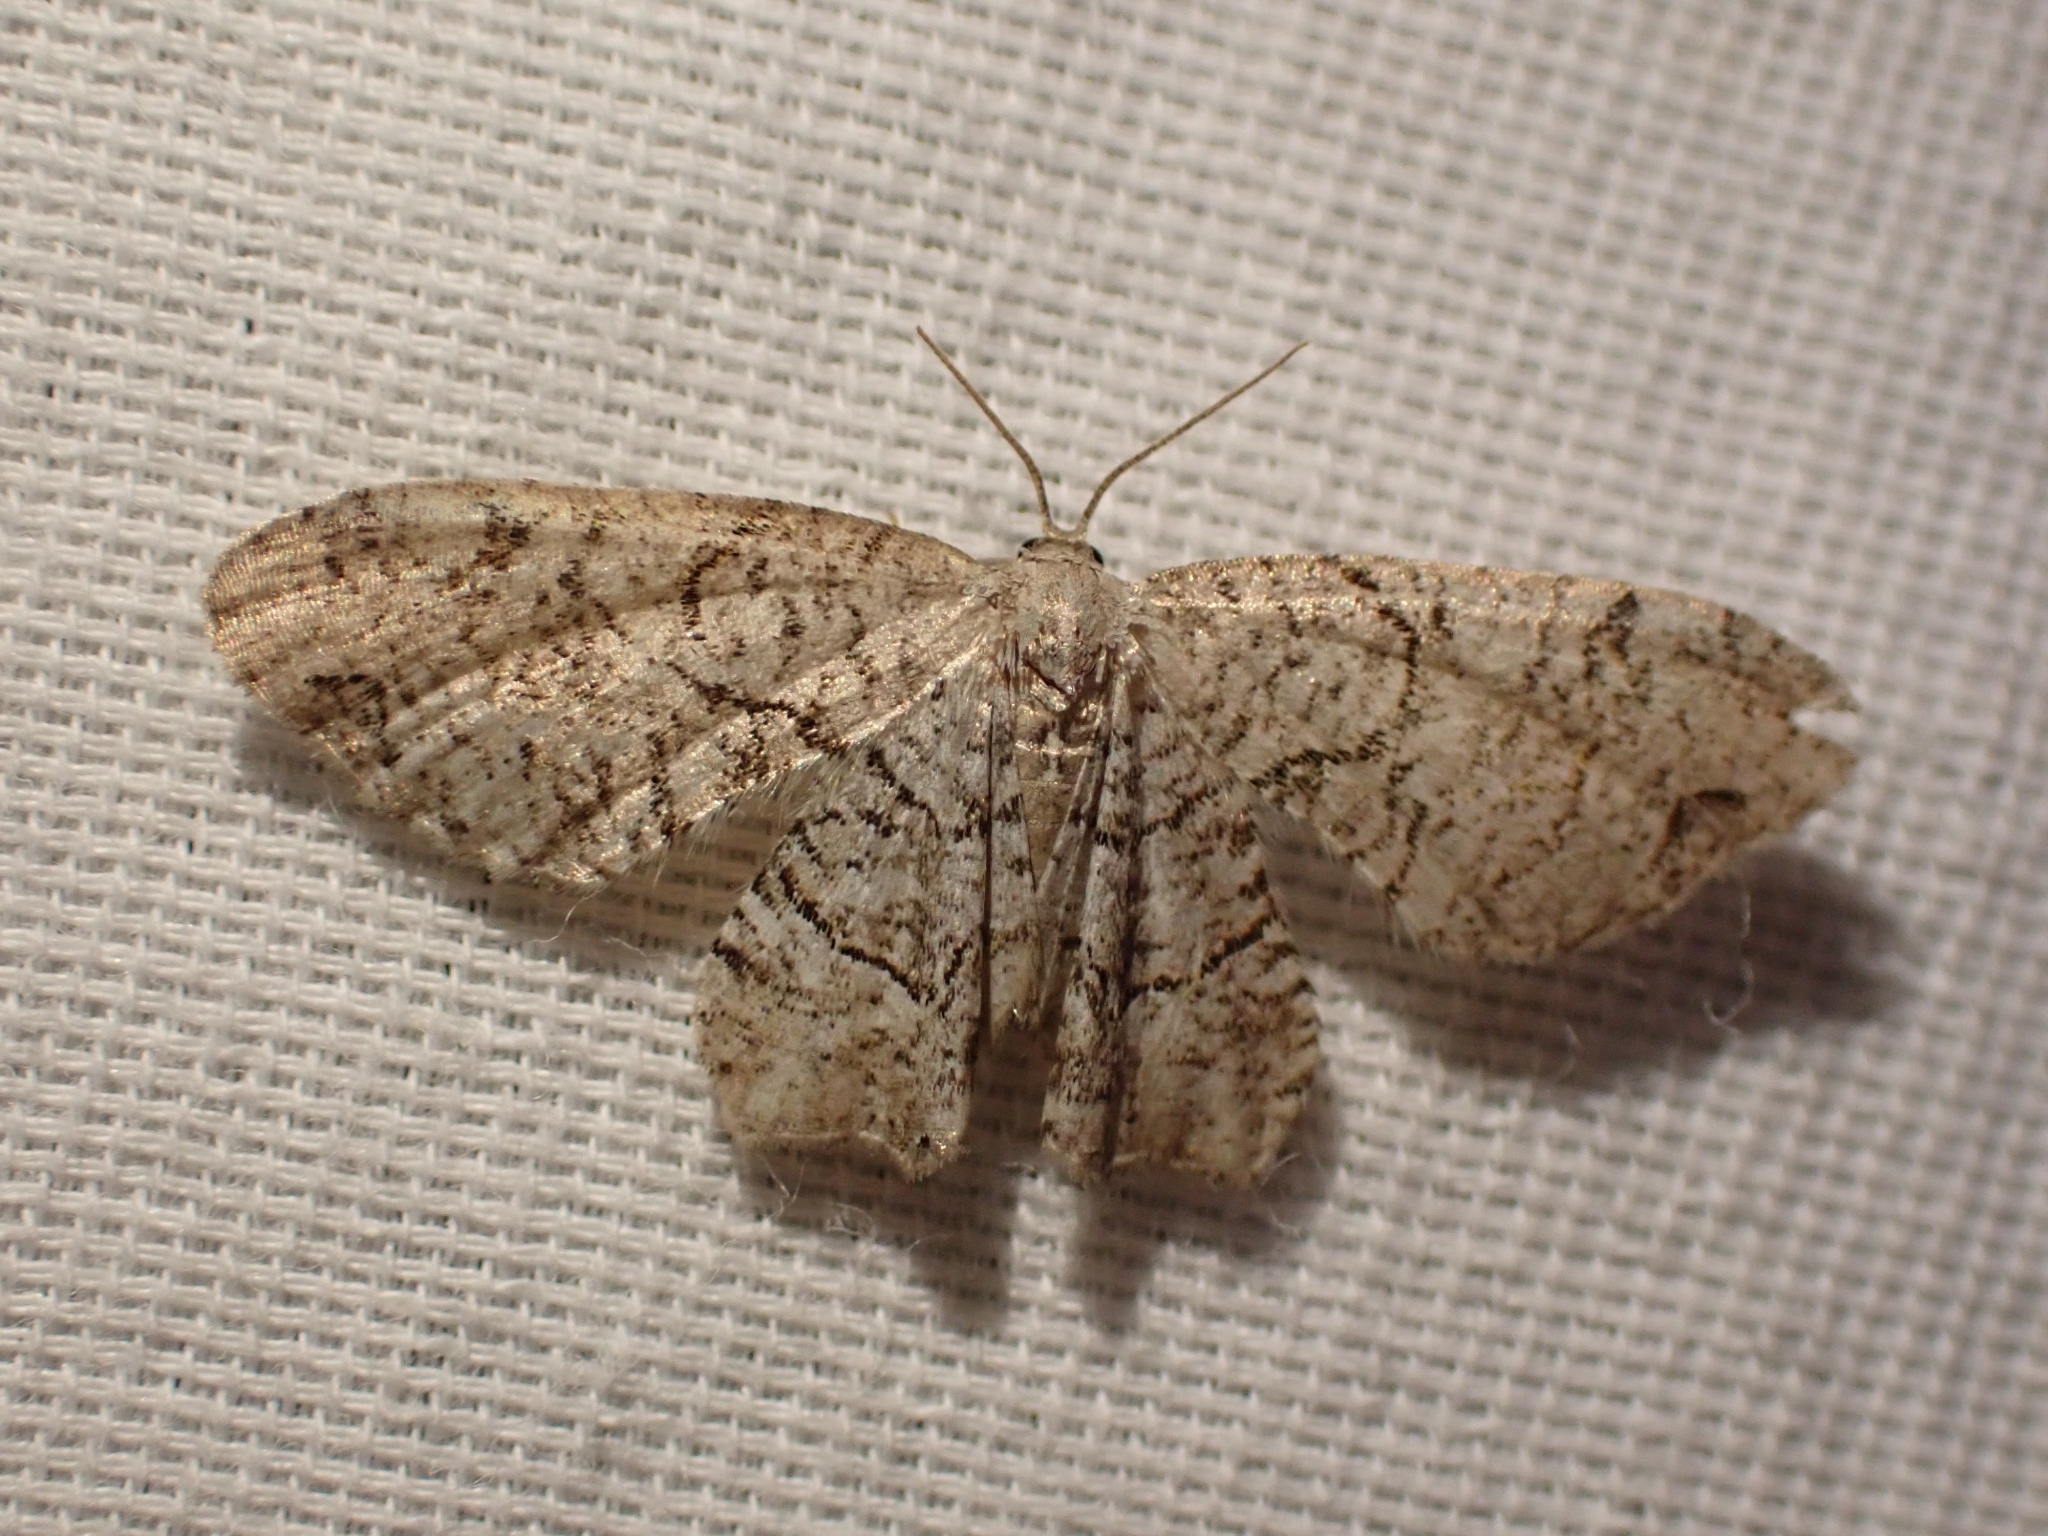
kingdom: Animalia
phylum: Arthropoda
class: Insecta
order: Lepidoptera
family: Uraniidae
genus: Epiplema
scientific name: Epiplema Callizzia amorata
